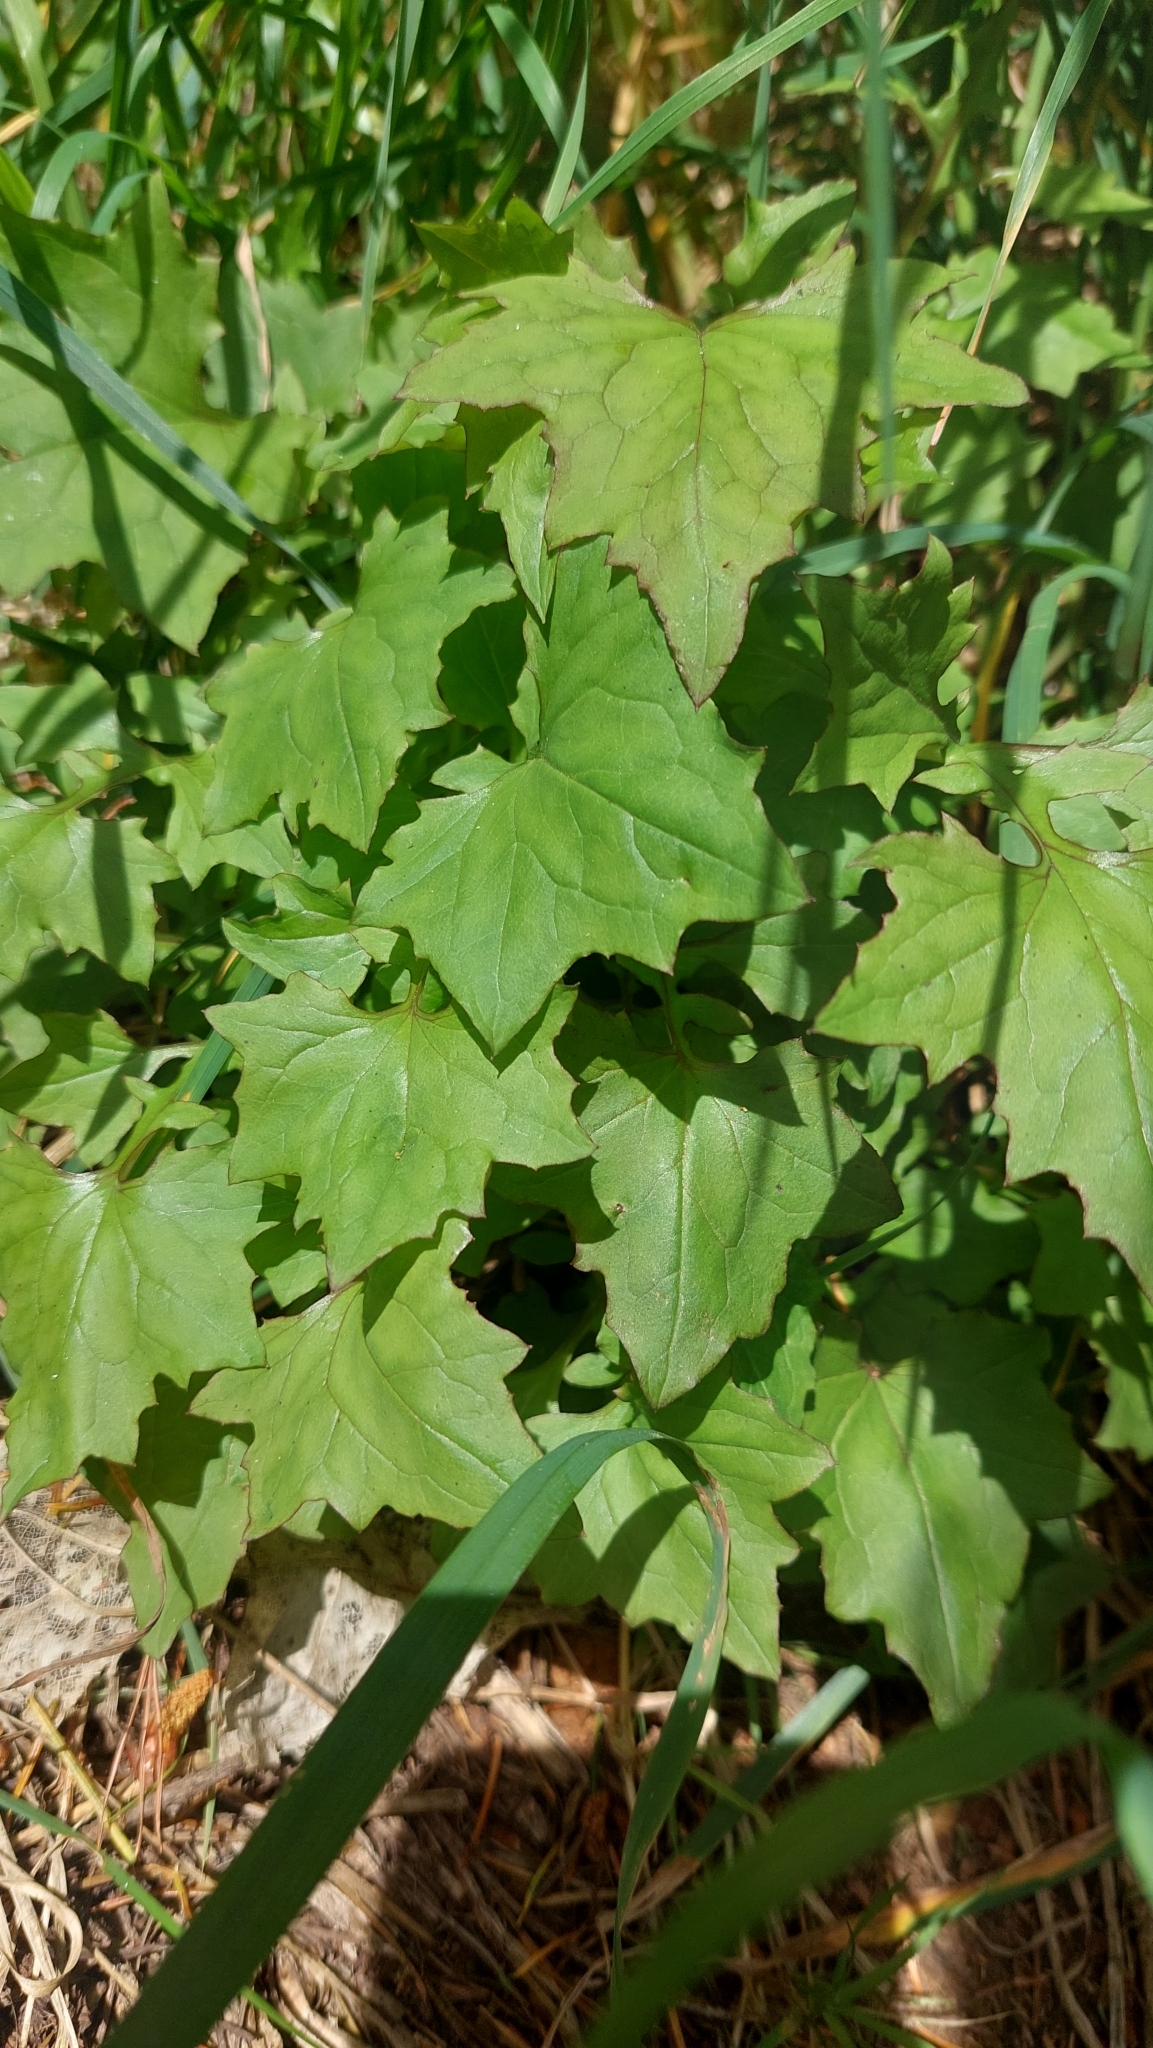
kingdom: Plantae
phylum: Tracheophyta
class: Magnoliopsida
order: Asterales
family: Asteraceae
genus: Mycelis
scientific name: Mycelis muralis
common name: Wall lettuce
